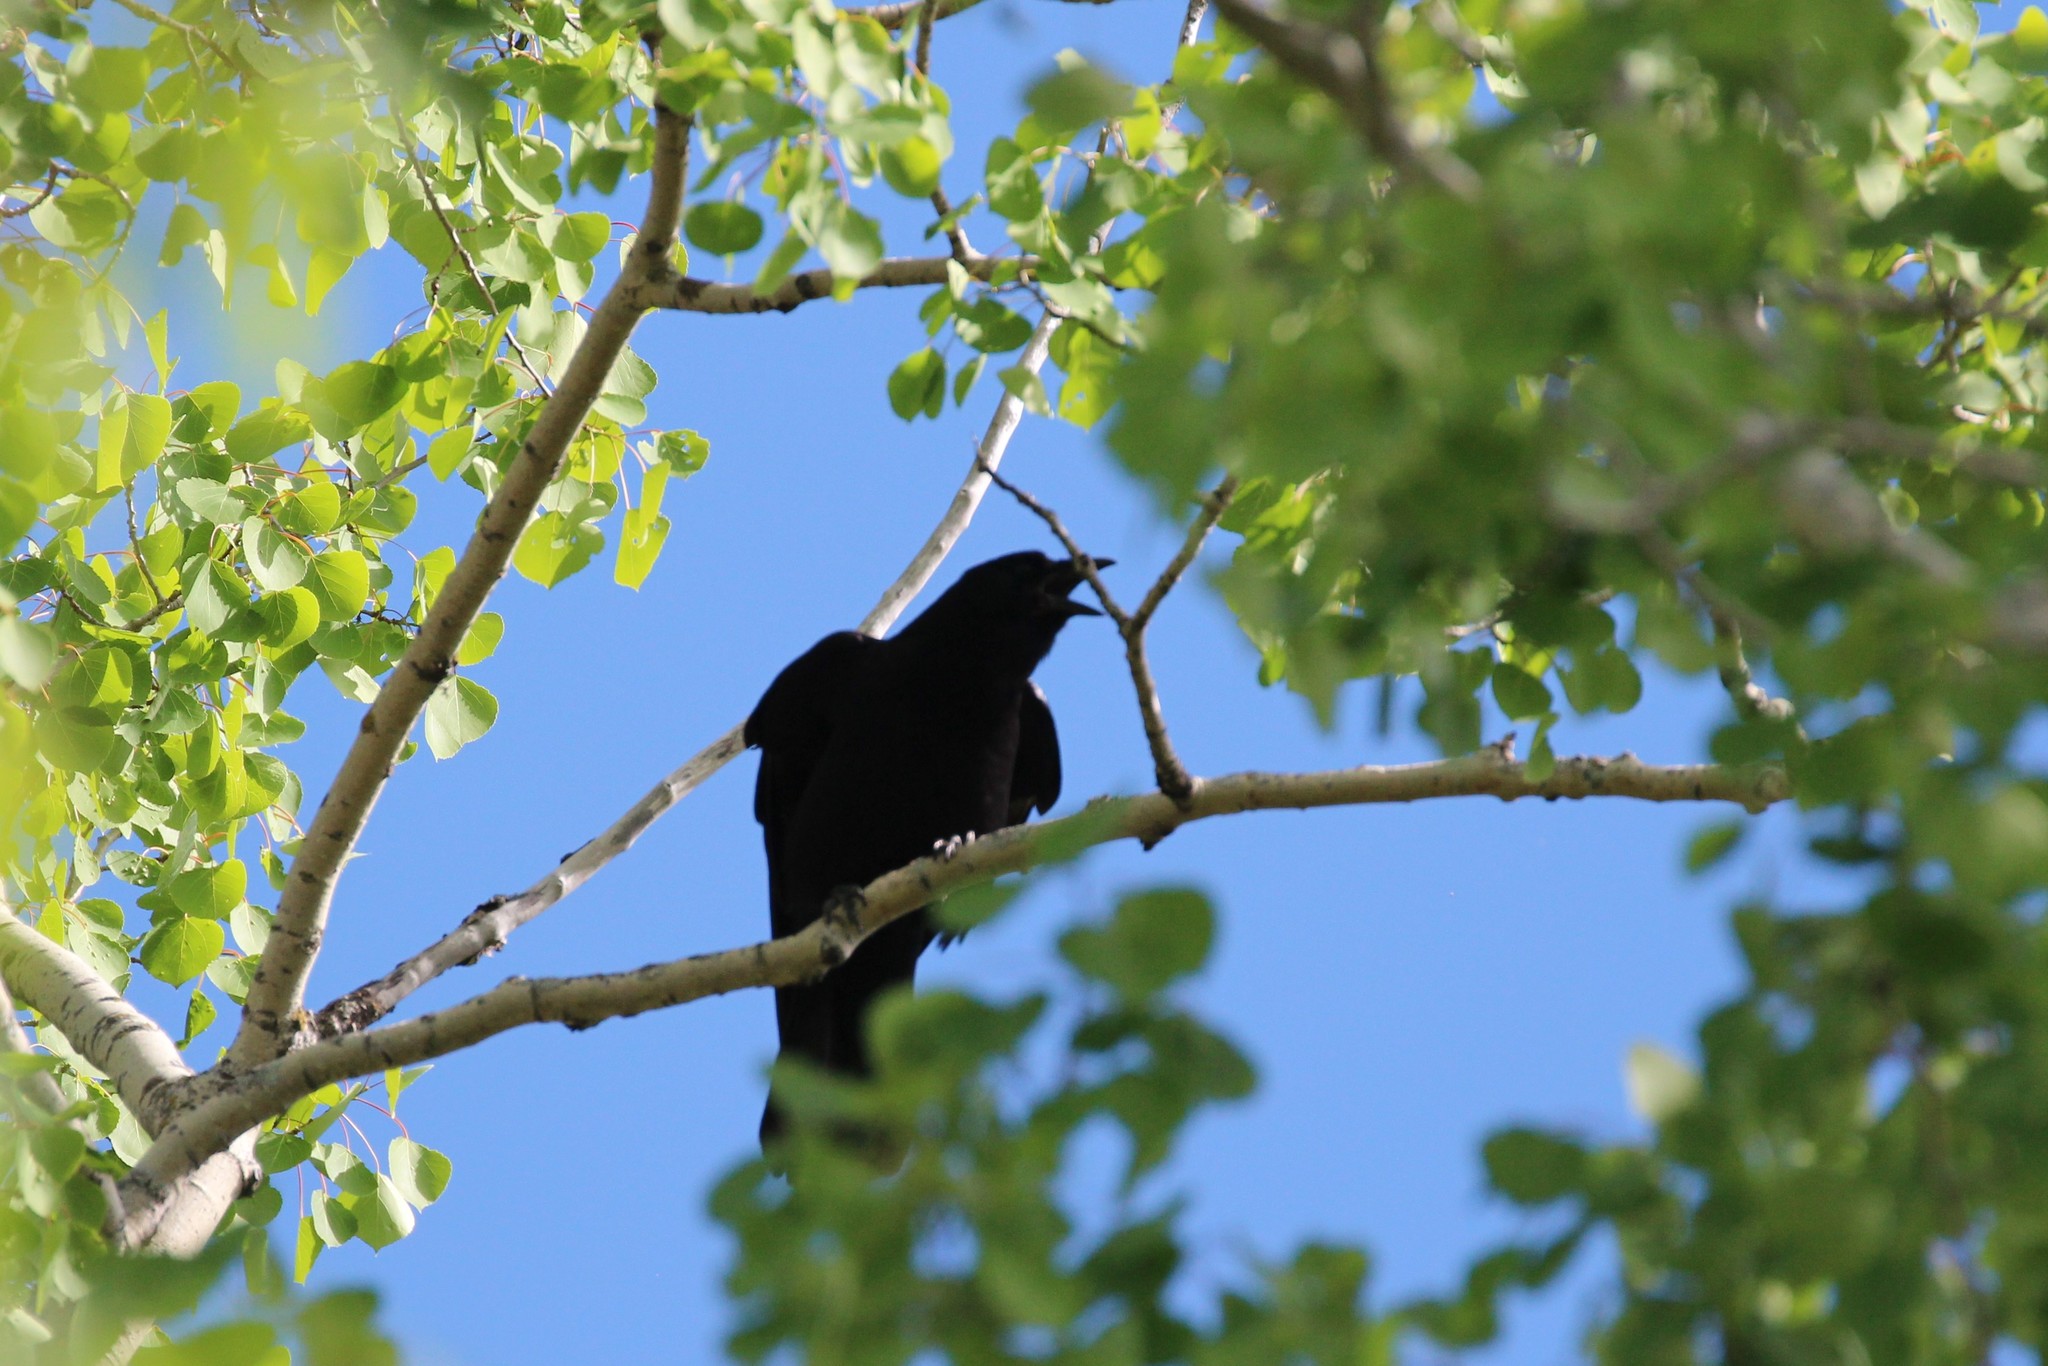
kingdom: Animalia
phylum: Chordata
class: Aves
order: Passeriformes
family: Corvidae
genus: Corvus
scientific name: Corvus brachyrhynchos
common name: American crow
